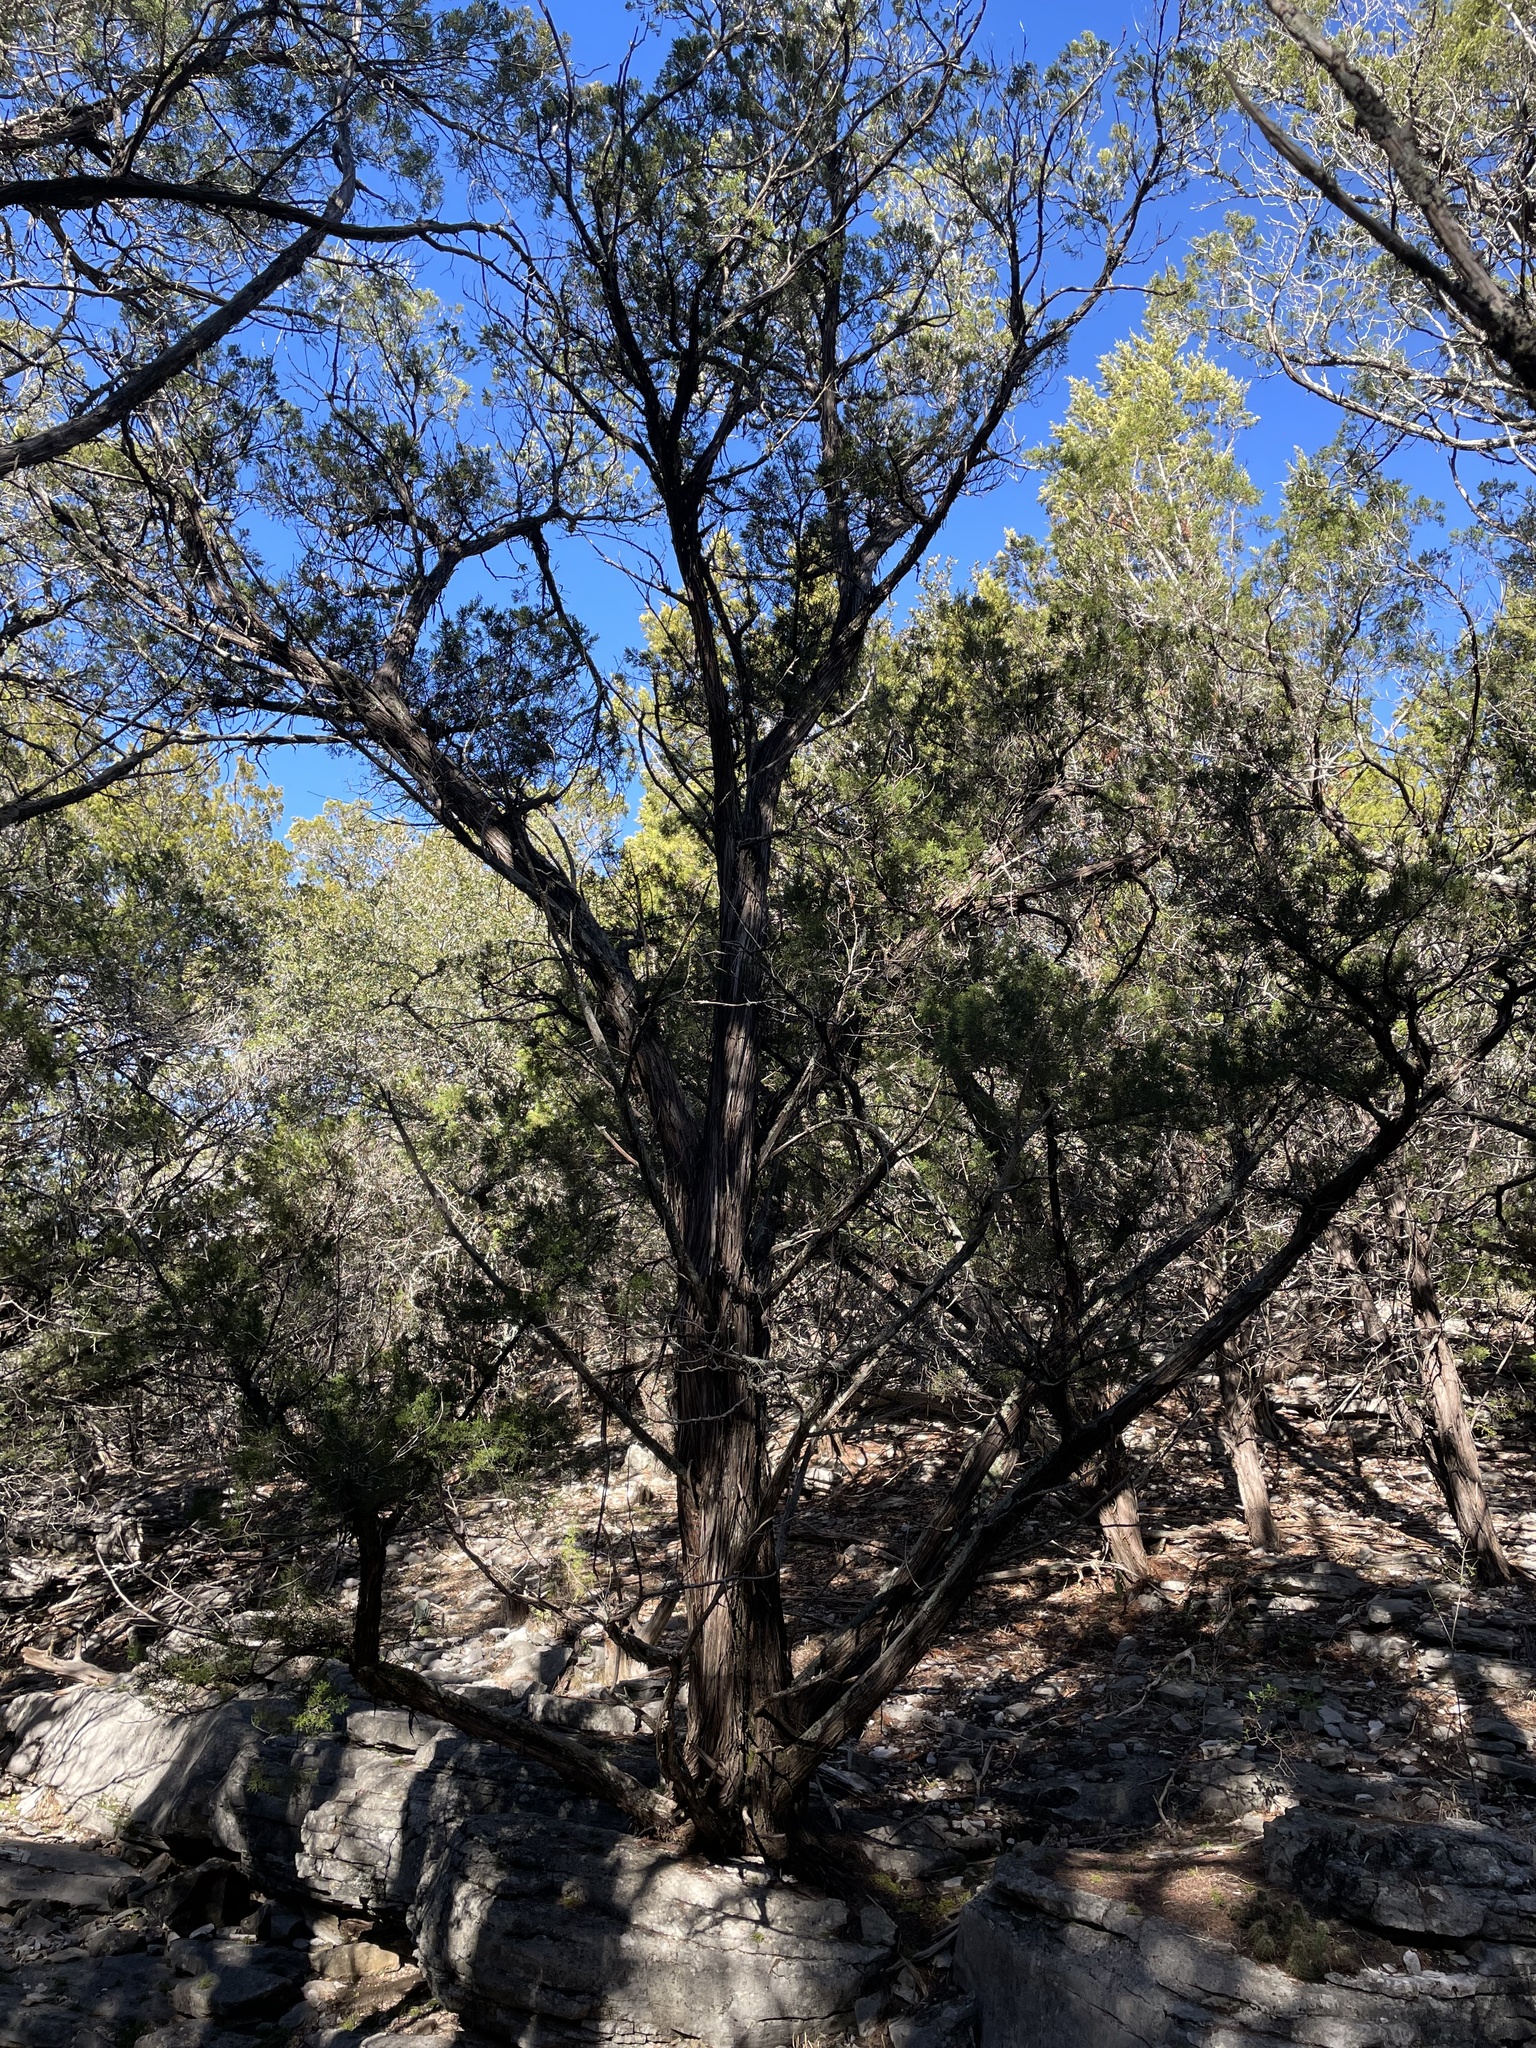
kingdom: Plantae
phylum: Tracheophyta
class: Pinopsida
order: Pinales
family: Cupressaceae
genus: Juniperus
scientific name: Juniperus ashei
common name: Mexican juniper
